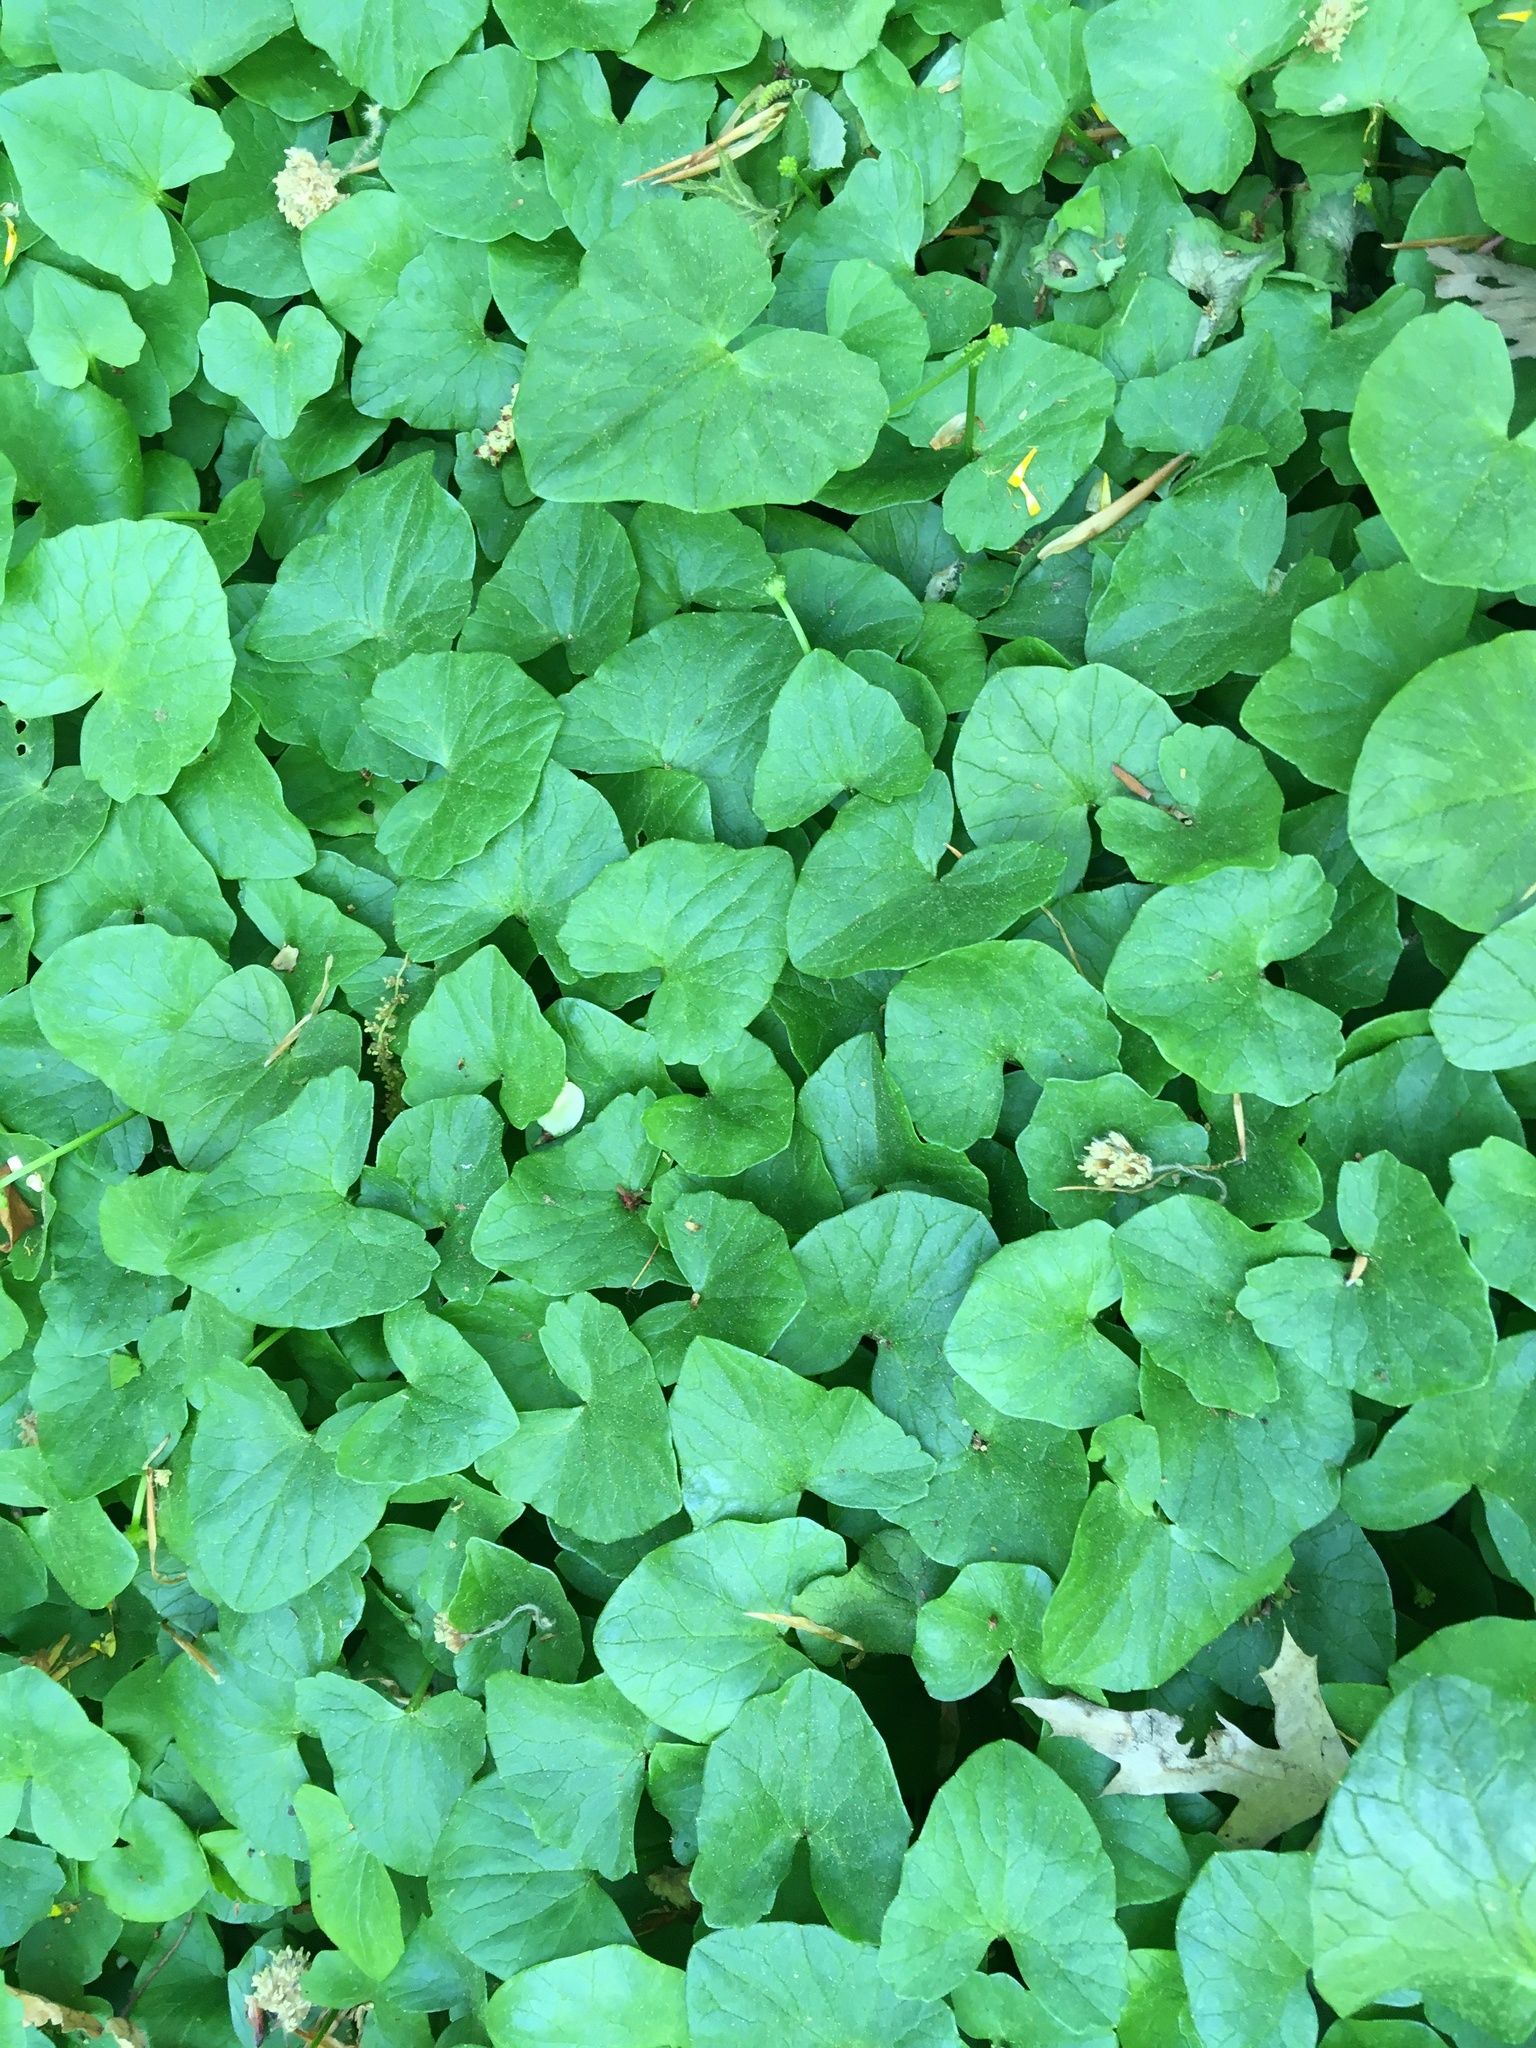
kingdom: Plantae
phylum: Tracheophyta
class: Magnoliopsida
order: Ranunculales
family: Ranunculaceae
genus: Ficaria
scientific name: Ficaria verna
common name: Lesser celandine
